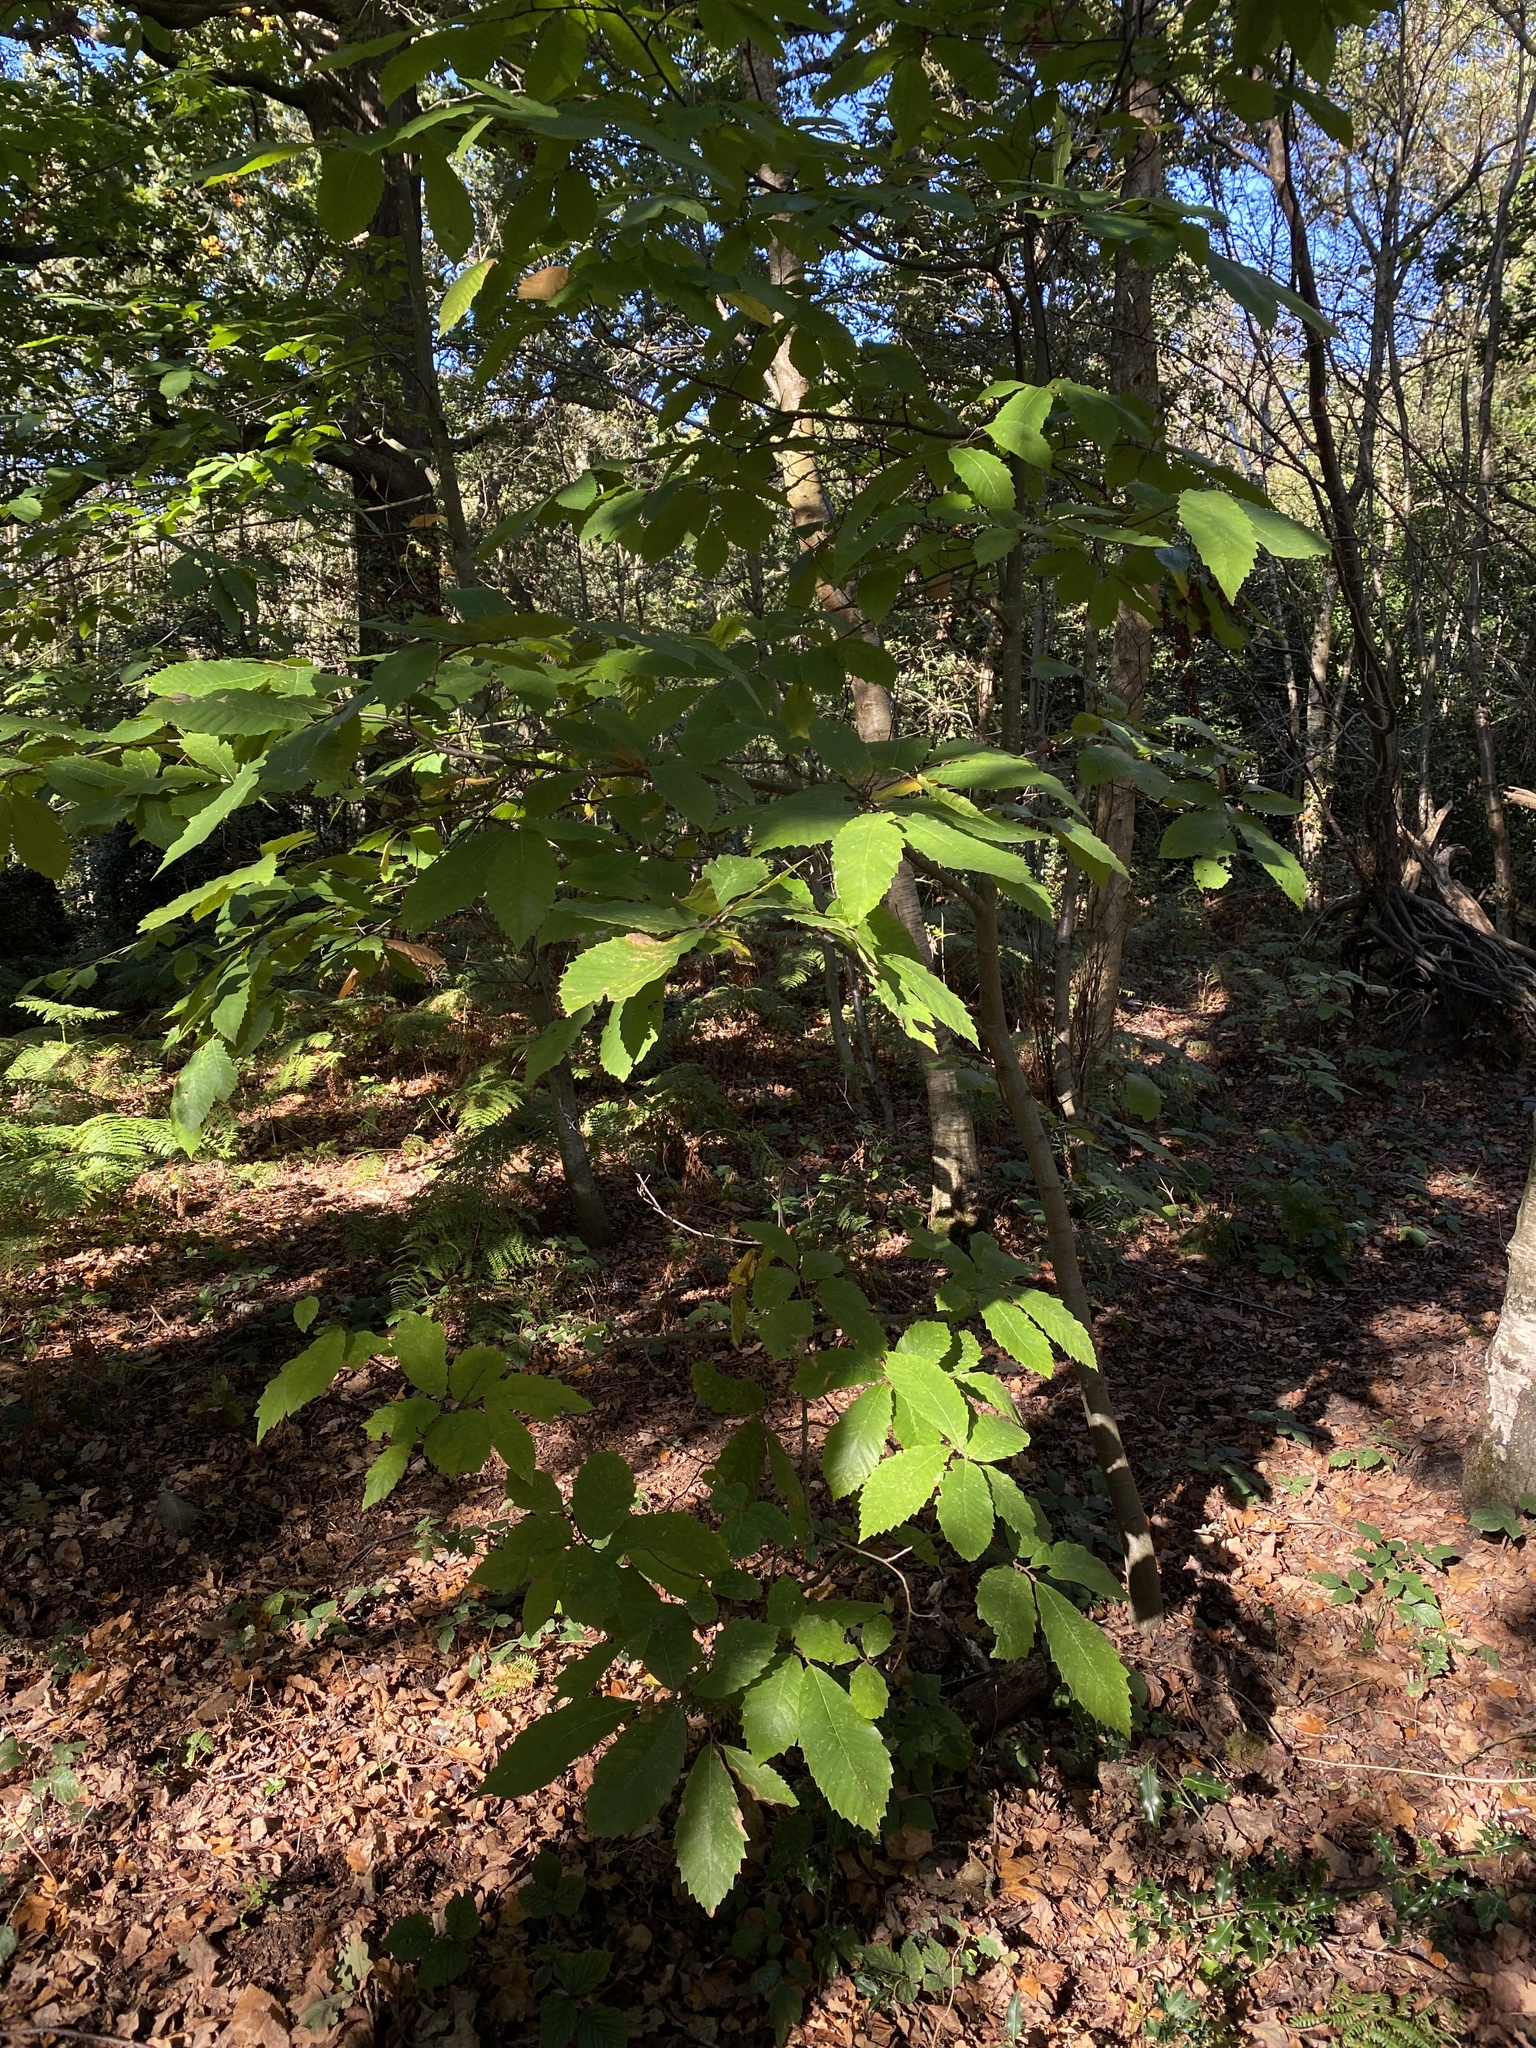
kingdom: Plantae
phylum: Tracheophyta
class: Magnoliopsida
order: Fagales
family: Fagaceae
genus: Castanea
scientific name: Castanea sativa
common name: Sweet chestnut
